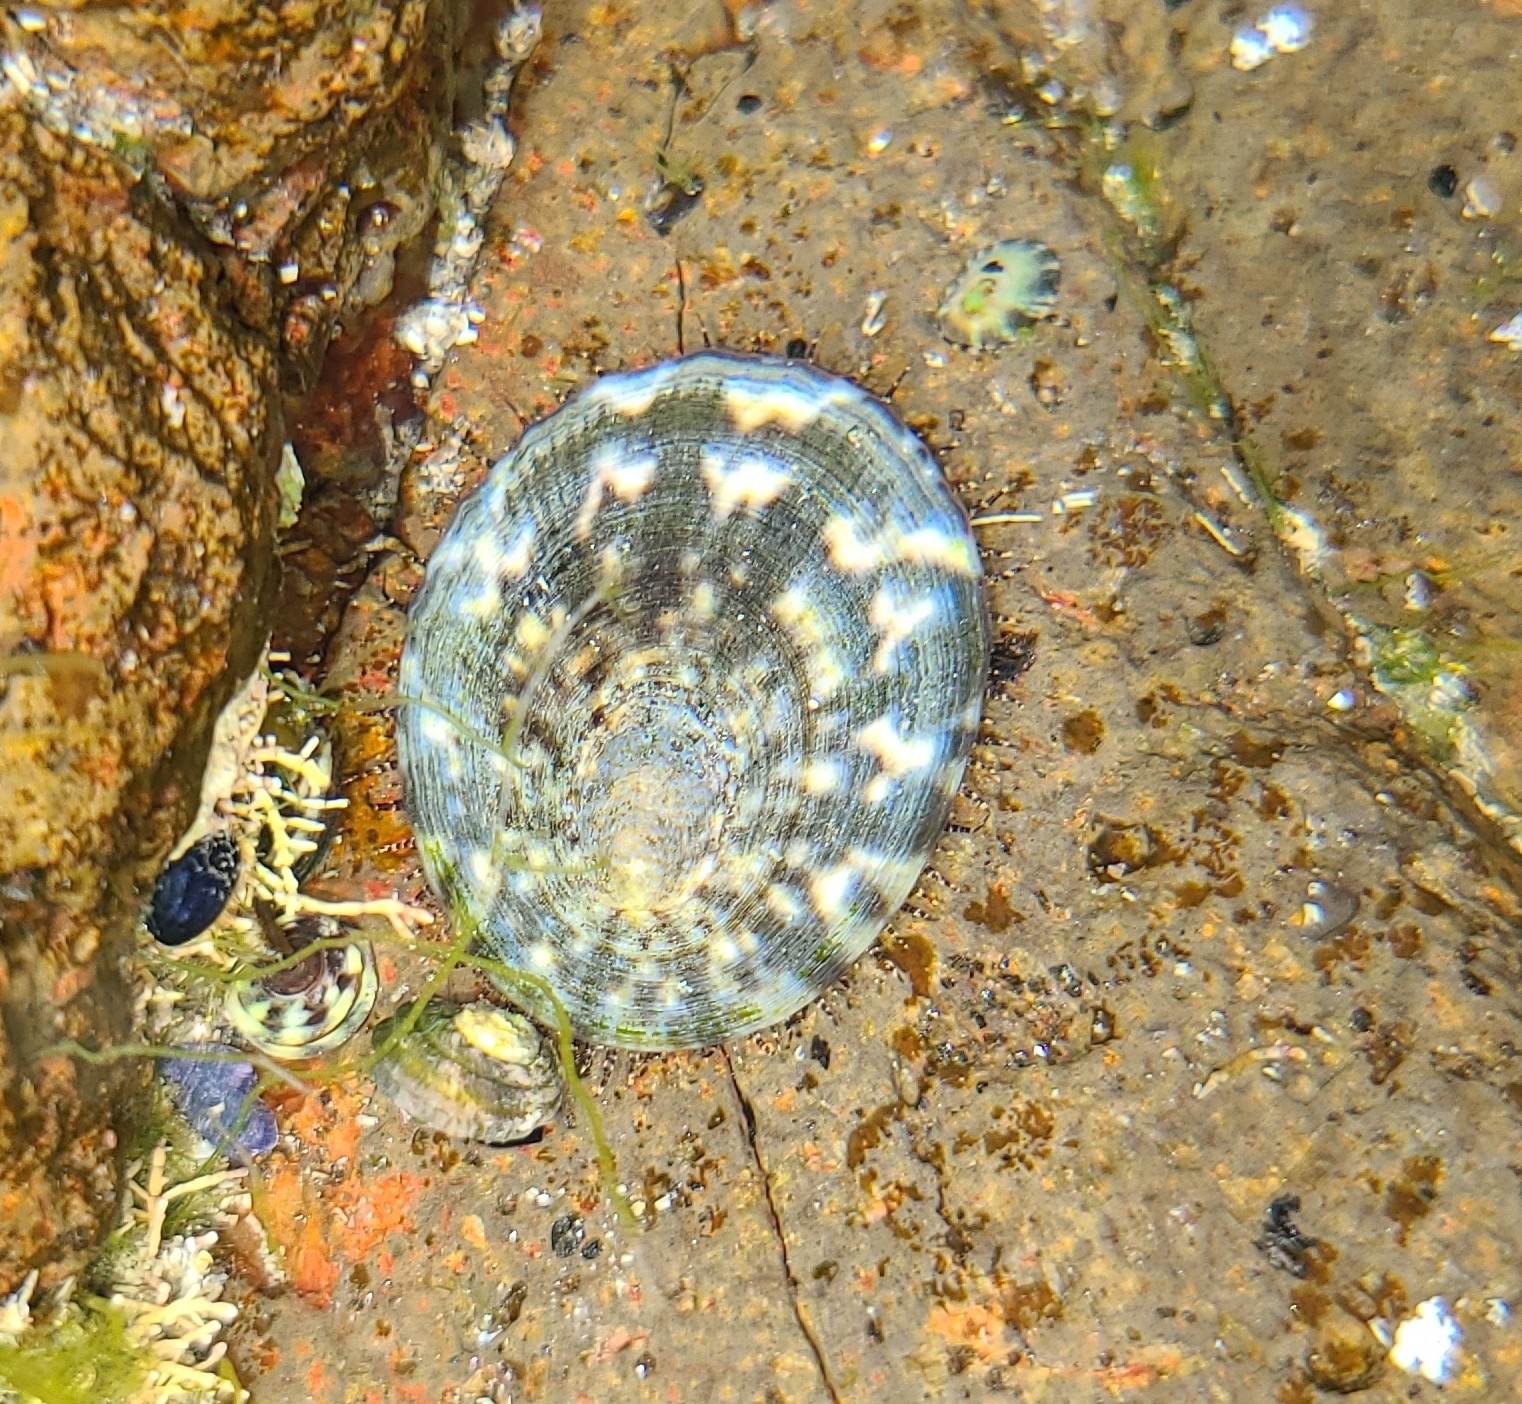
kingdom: Animalia
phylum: Mollusca
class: Gastropoda
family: Nacellidae
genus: Cellana
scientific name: Cellana radians
